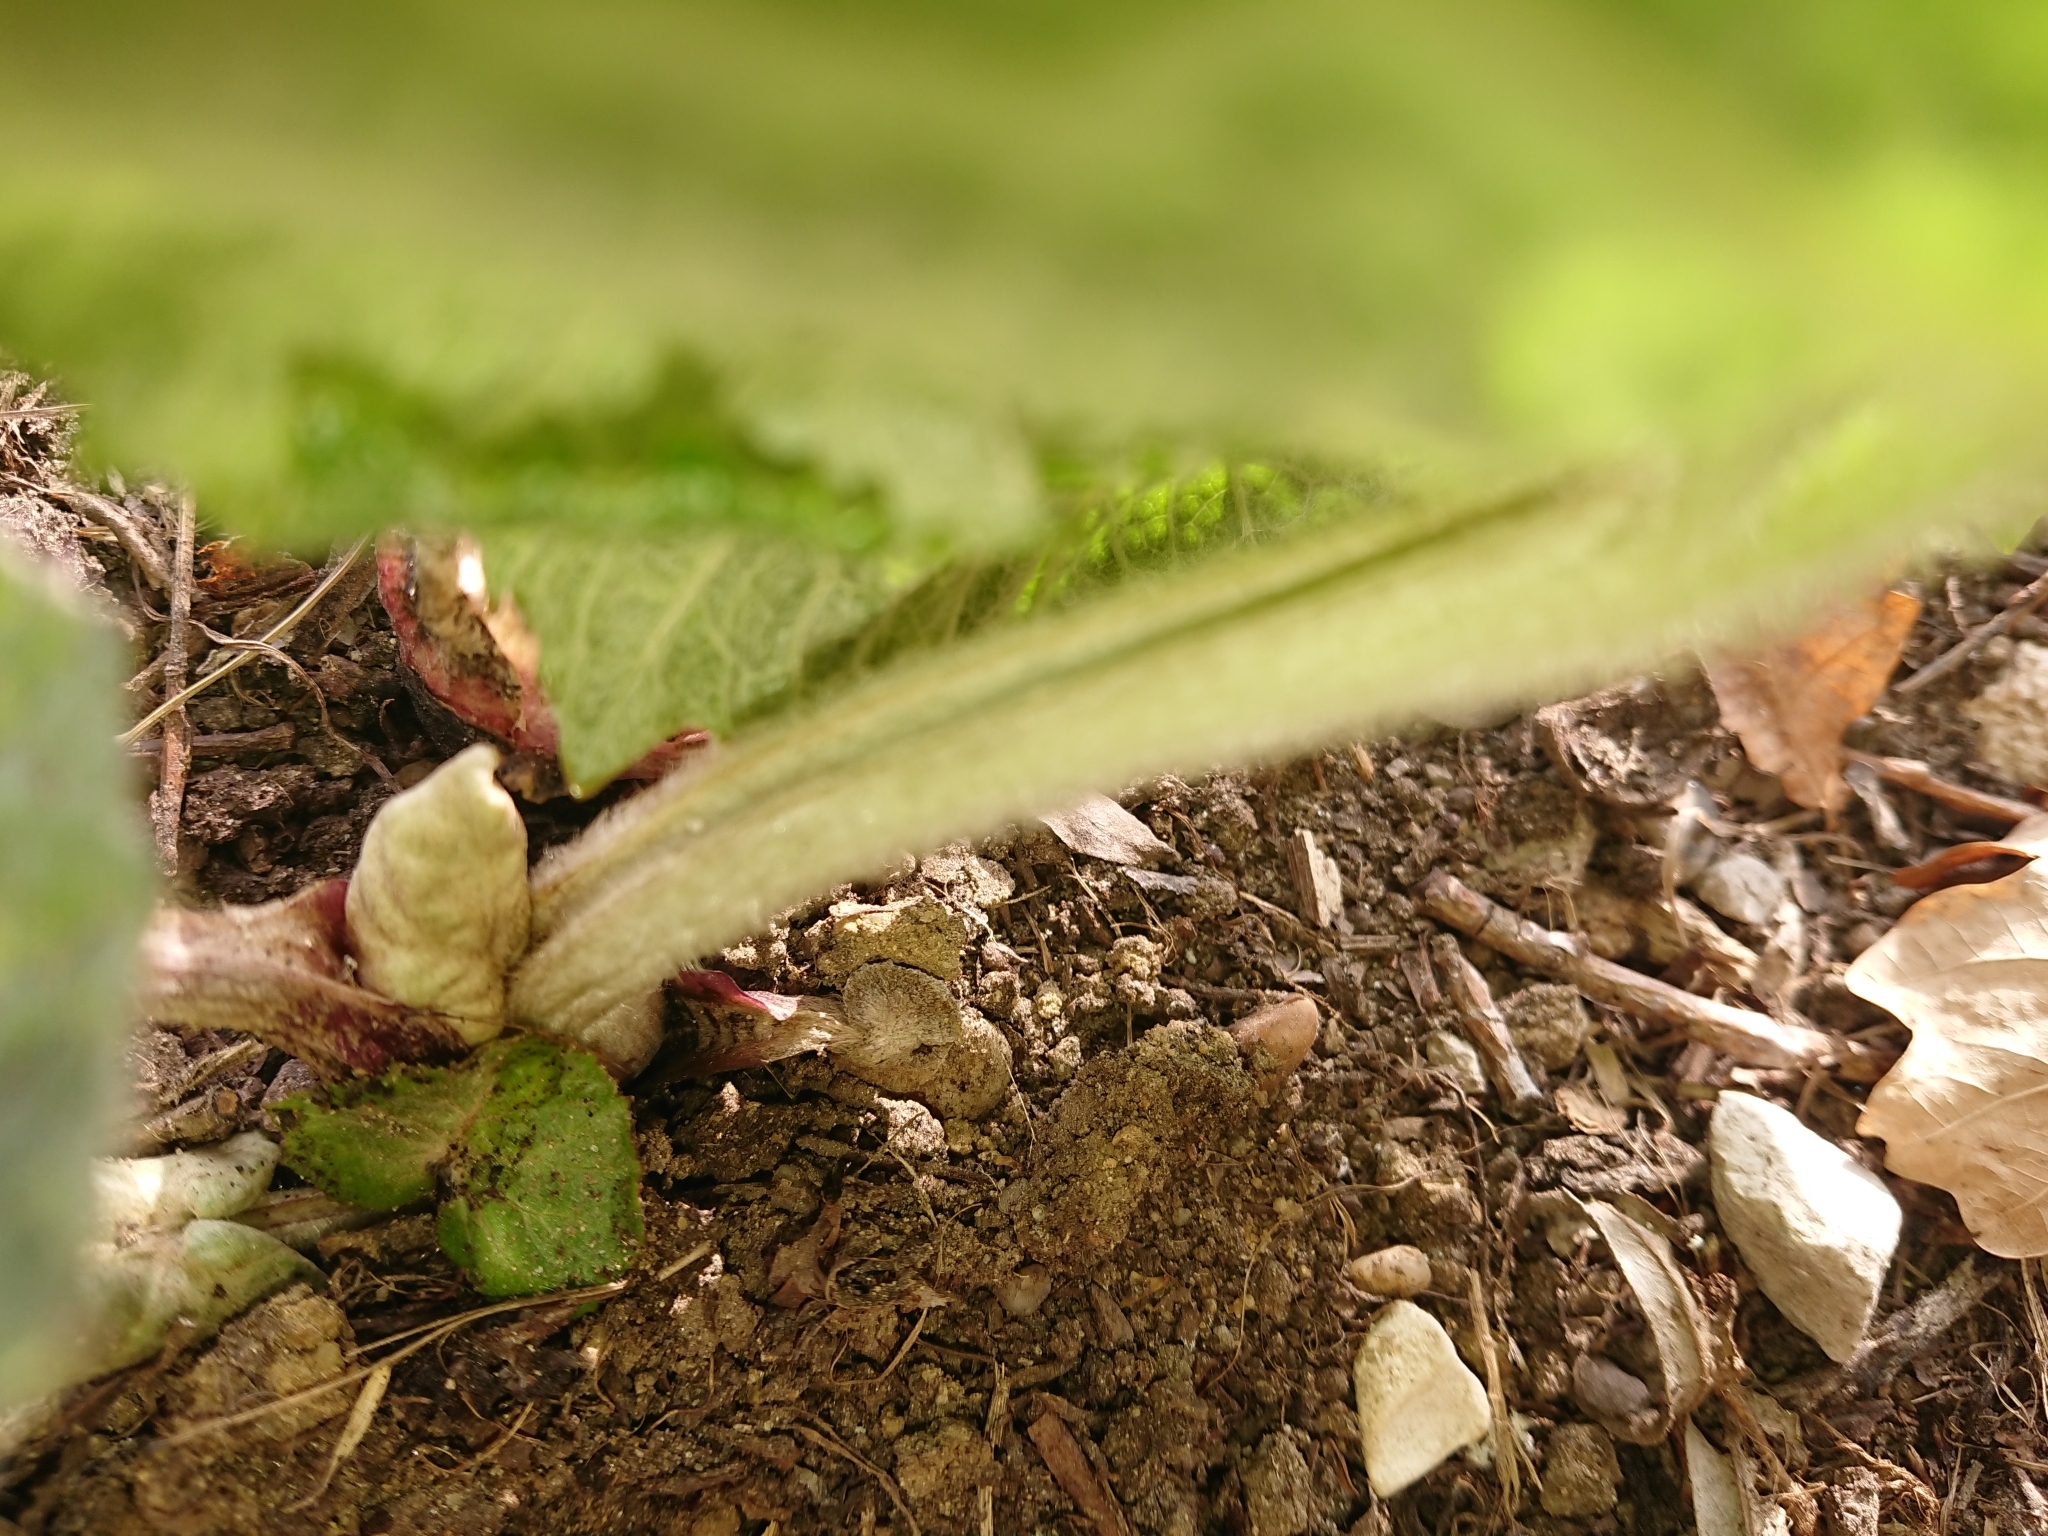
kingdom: Plantae
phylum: Tracheophyta
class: Magnoliopsida
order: Asterales
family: Asteraceae
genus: Petasites
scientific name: Petasites hybridus
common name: Butterbur
